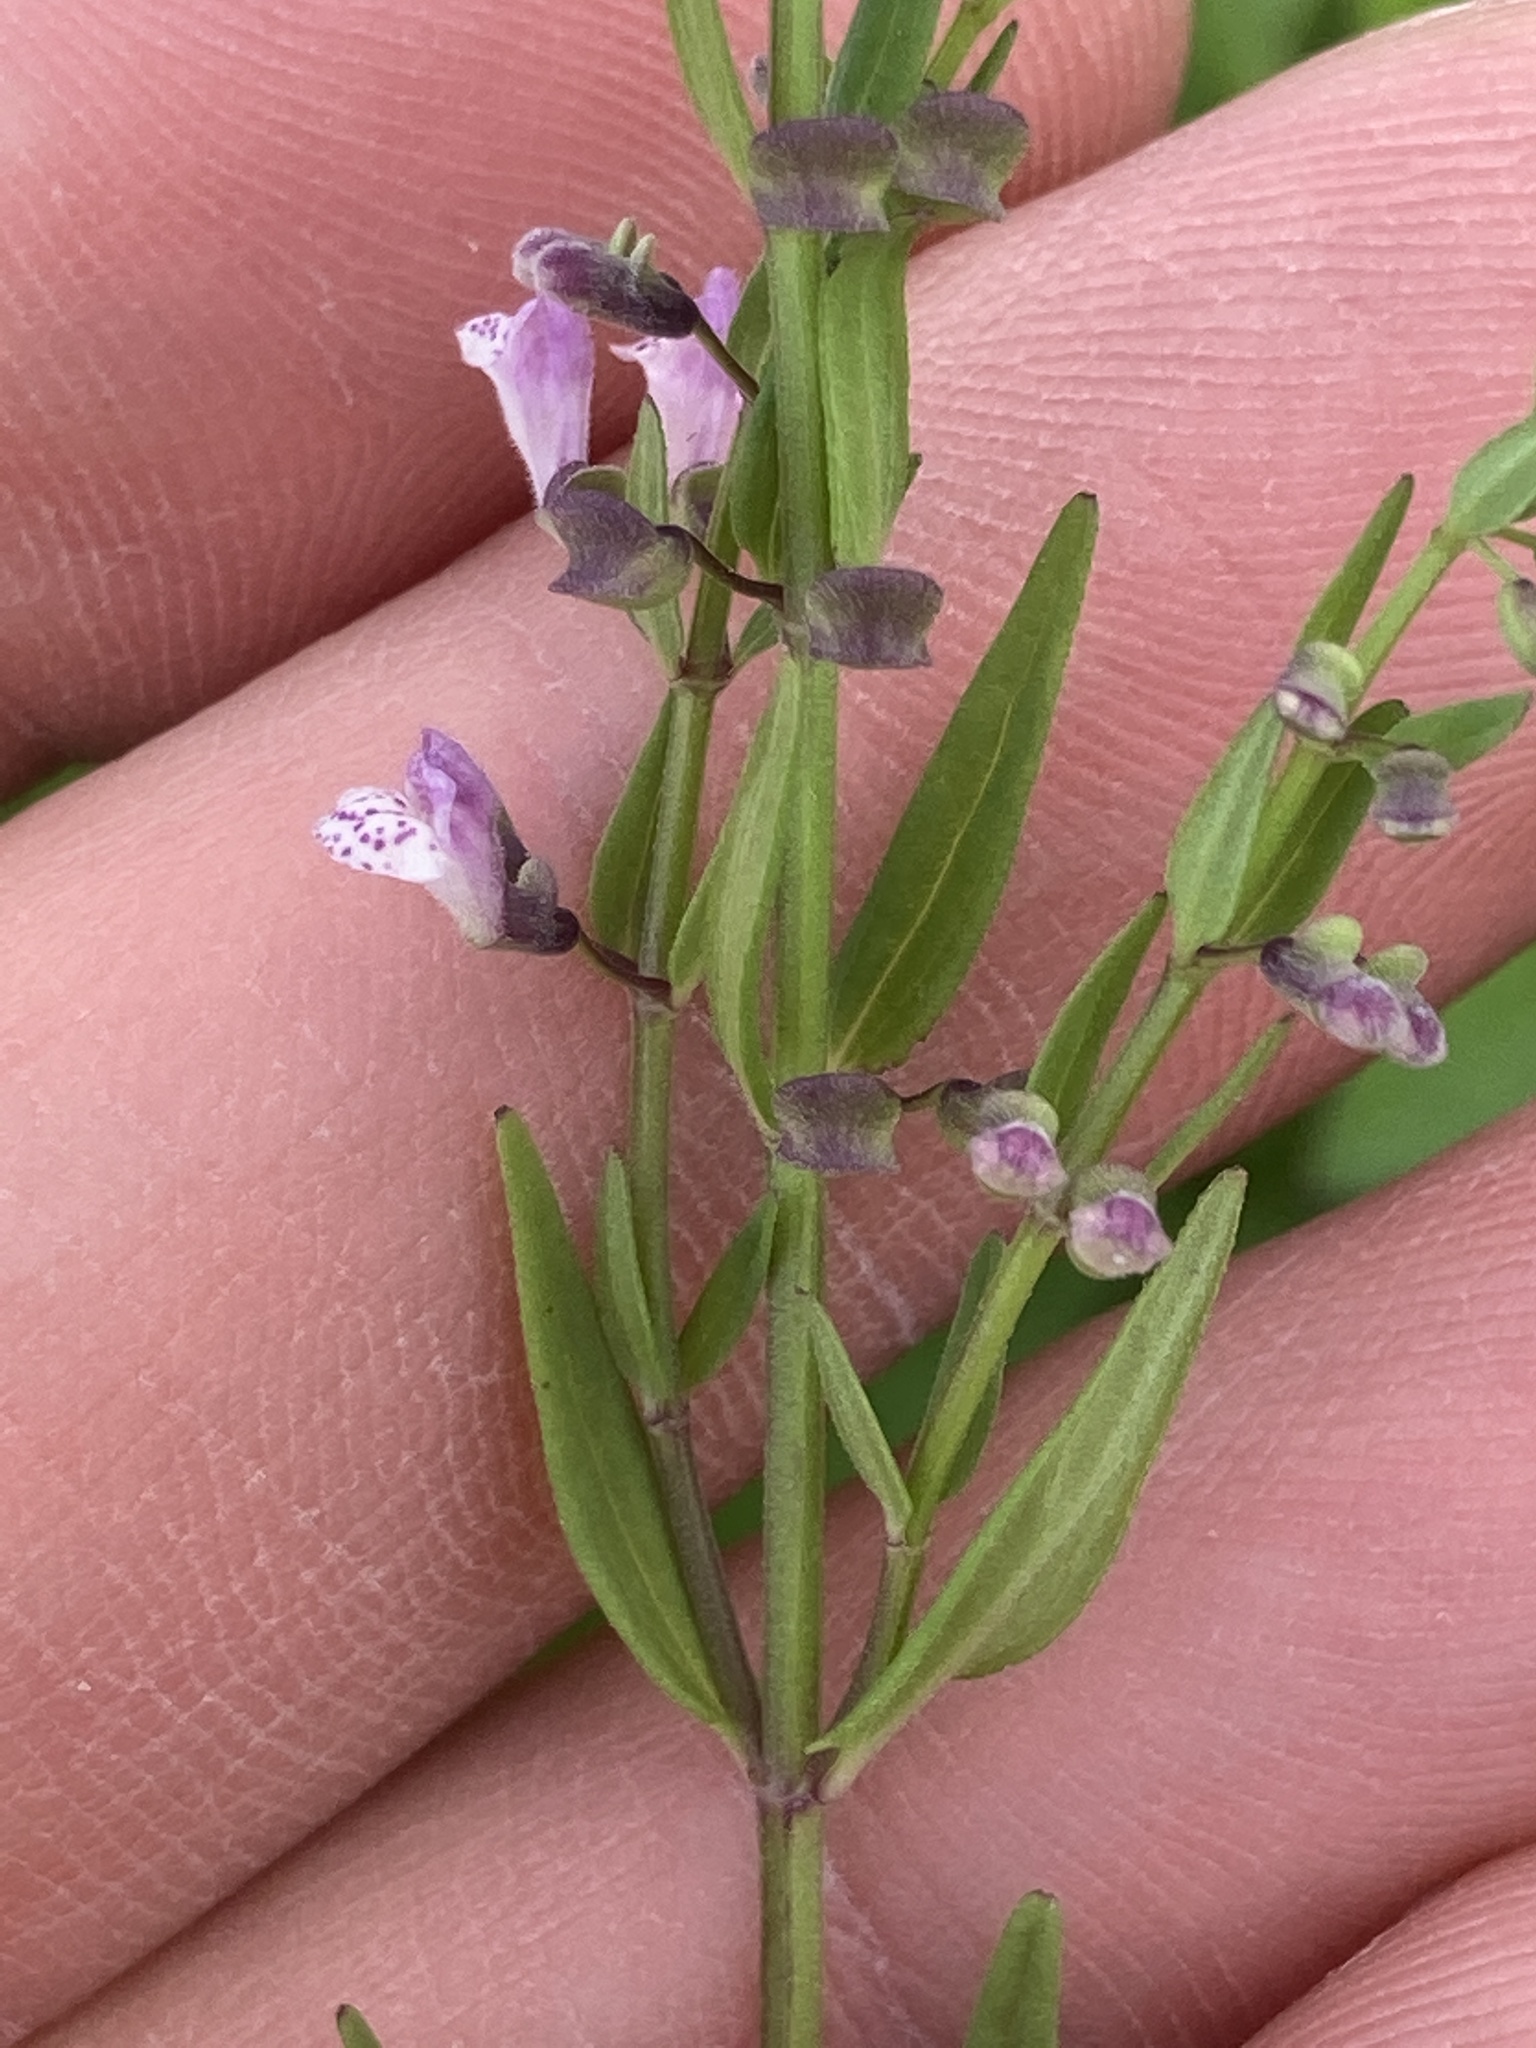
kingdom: Plantae
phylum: Tracheophyta
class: Magnoliopsida
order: Lamiales
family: Lamiaceae
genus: Scutellaria
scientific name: Scutellaria racemosa
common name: South american skullcap
